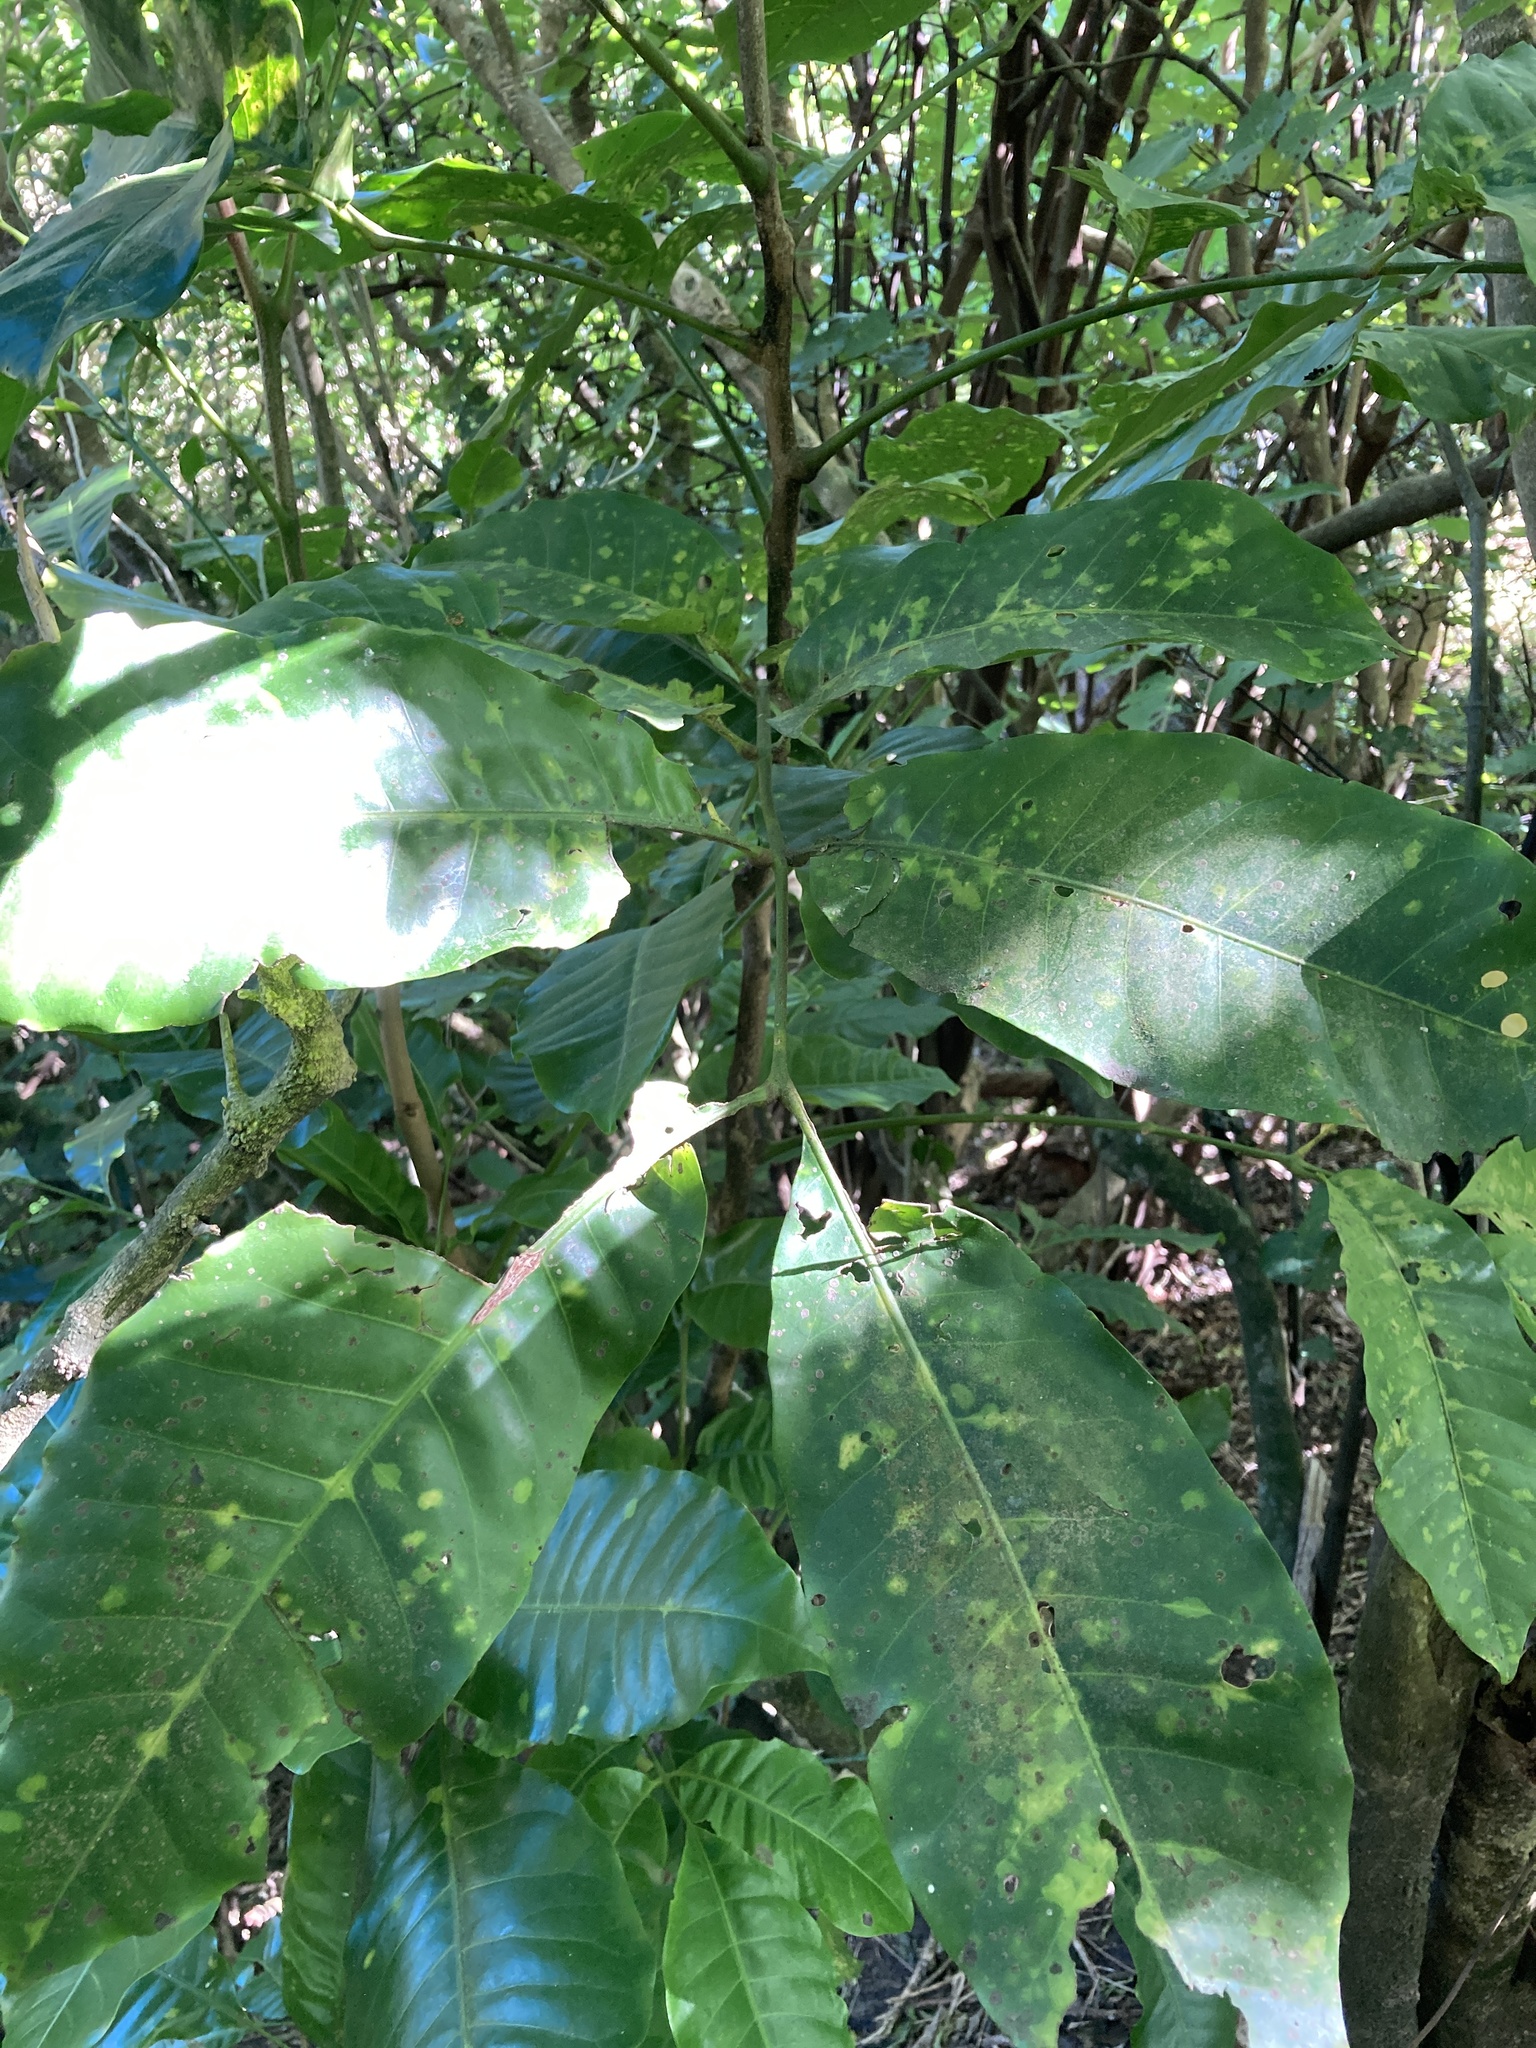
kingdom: Plantae
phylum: Tracheophyta
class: Magnoliopsida
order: Sapindales
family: Meliaceae
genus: Didymocheton
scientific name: Didymocheton spectabilis
